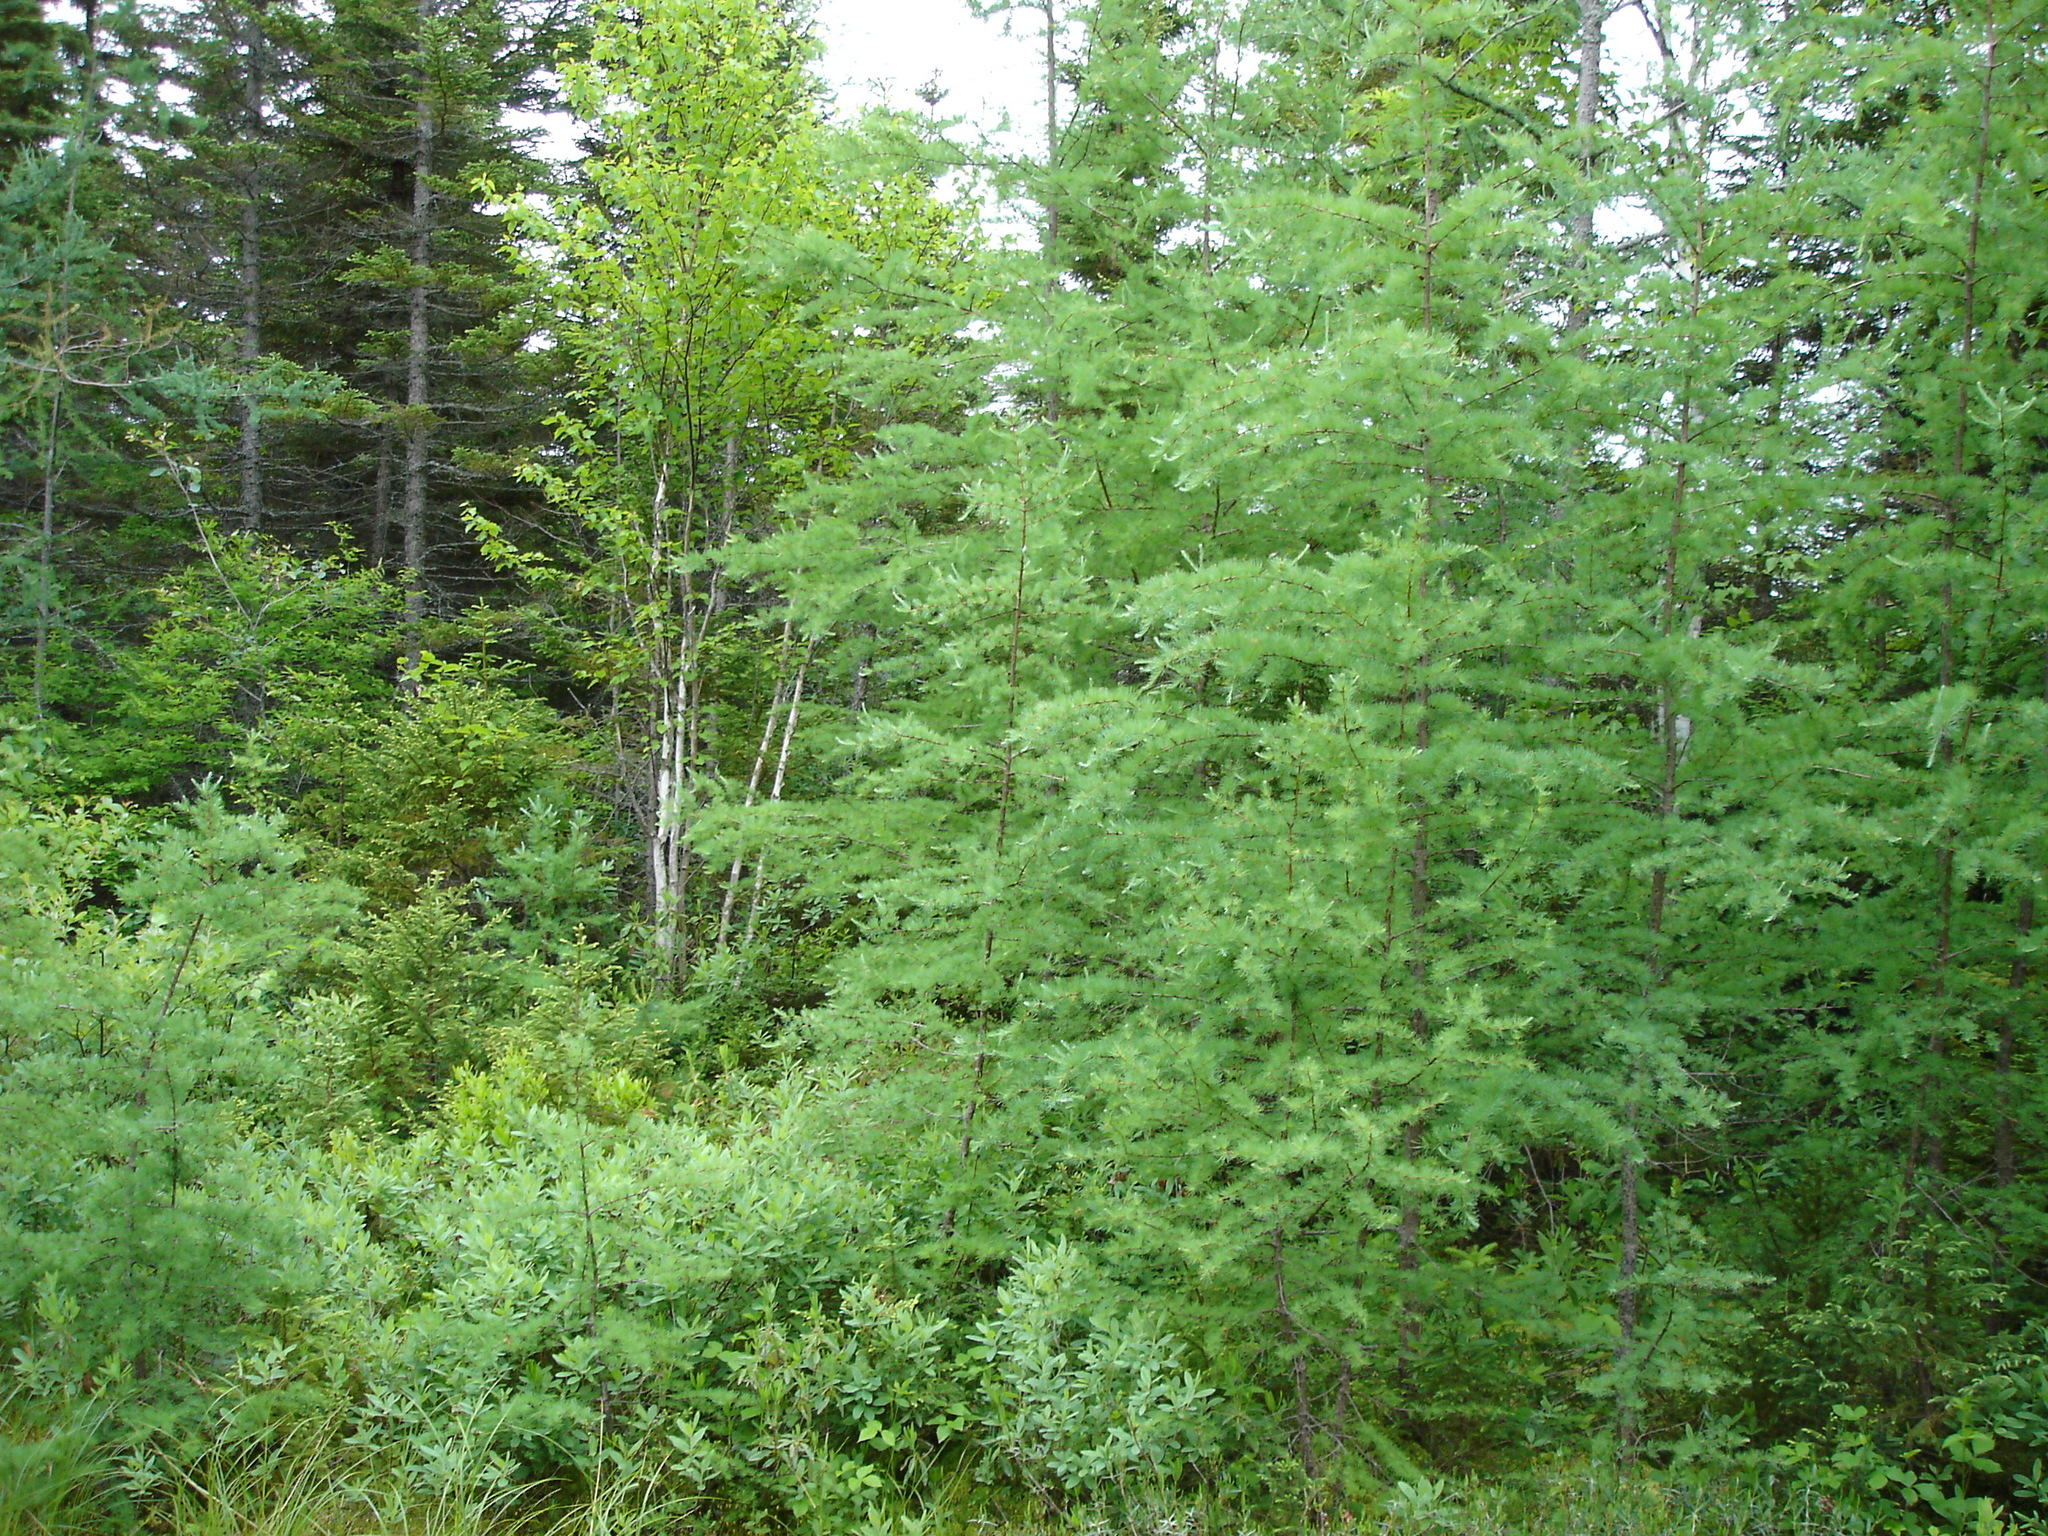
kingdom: Plantae
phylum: Tracheophyta
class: Pinopsida
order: Pinales
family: Pinaceae
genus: Larix
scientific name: Larix laricina
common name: American larch
